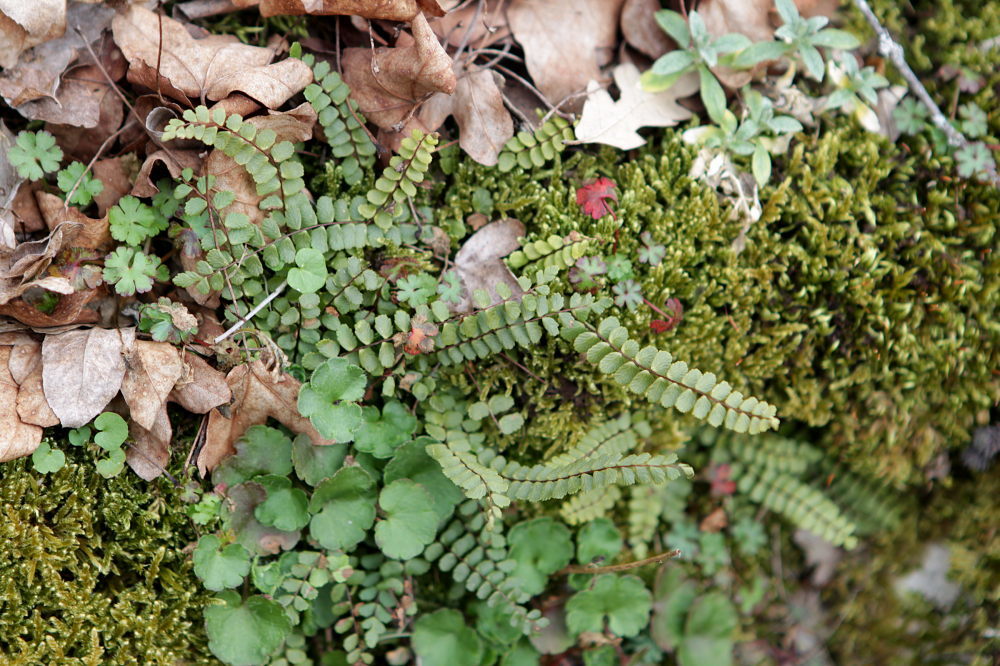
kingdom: Plantae
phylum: Tracheophyta
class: Polypodiopsida
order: Polypodiales
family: Aspleniaceae
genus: Asplenium
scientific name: Asplenium trichomanes
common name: Maidenhair spleenwort
